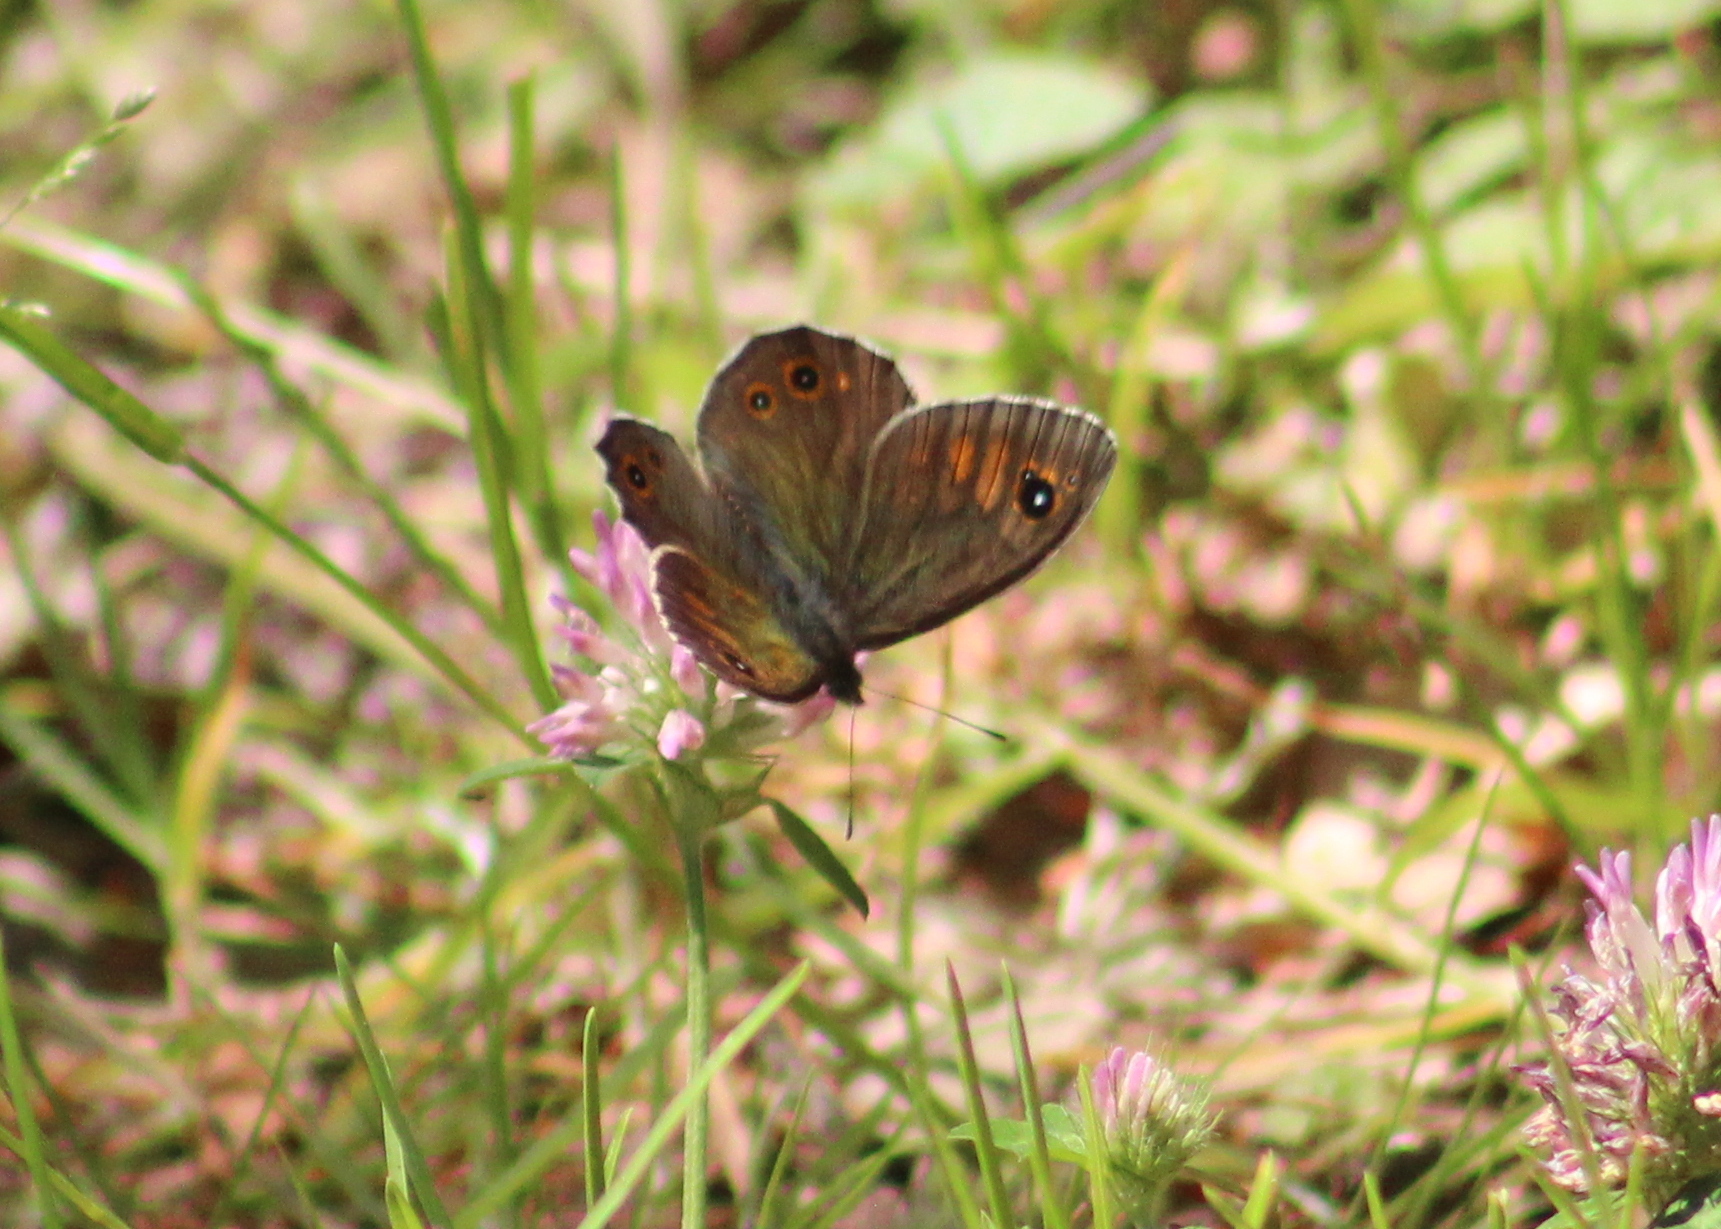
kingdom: Animalia
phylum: Arthropoda
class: Insecta
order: Lepidoptera
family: Nymphalidae
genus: Pararge
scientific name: Pararge Lasiommata maera
